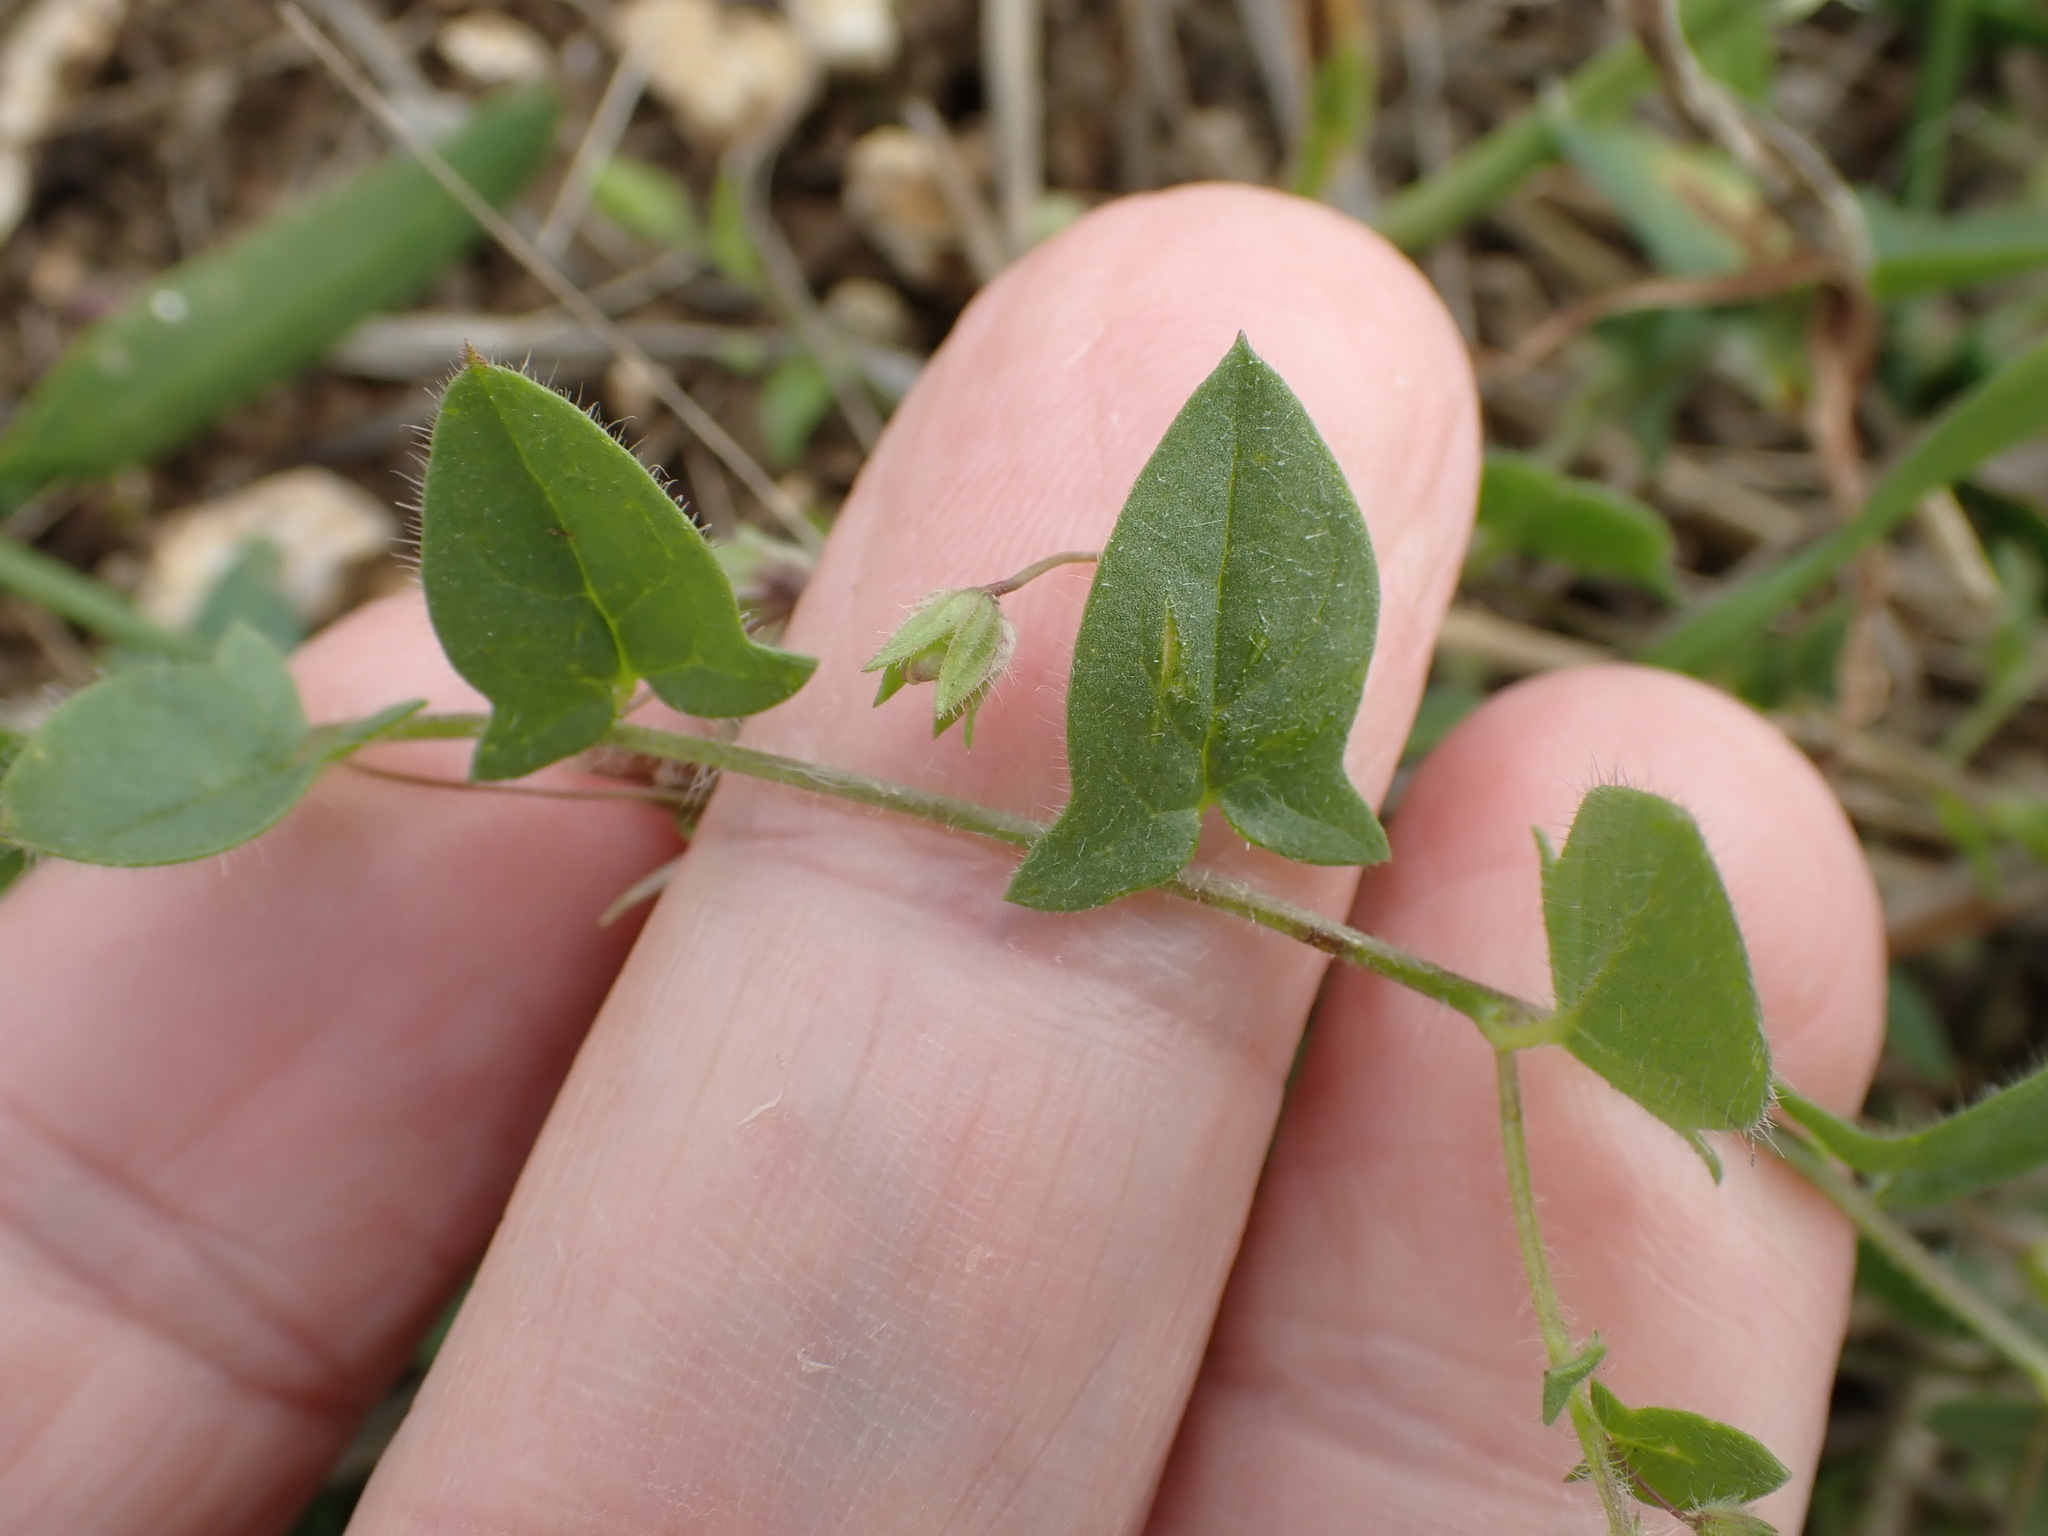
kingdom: Plantae
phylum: Tracheophyta
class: Magnoliopsida
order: Lamiales
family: Plantaginaceae
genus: Kickxia
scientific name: Kickxia elatine
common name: Sharp-leaved fluellen
